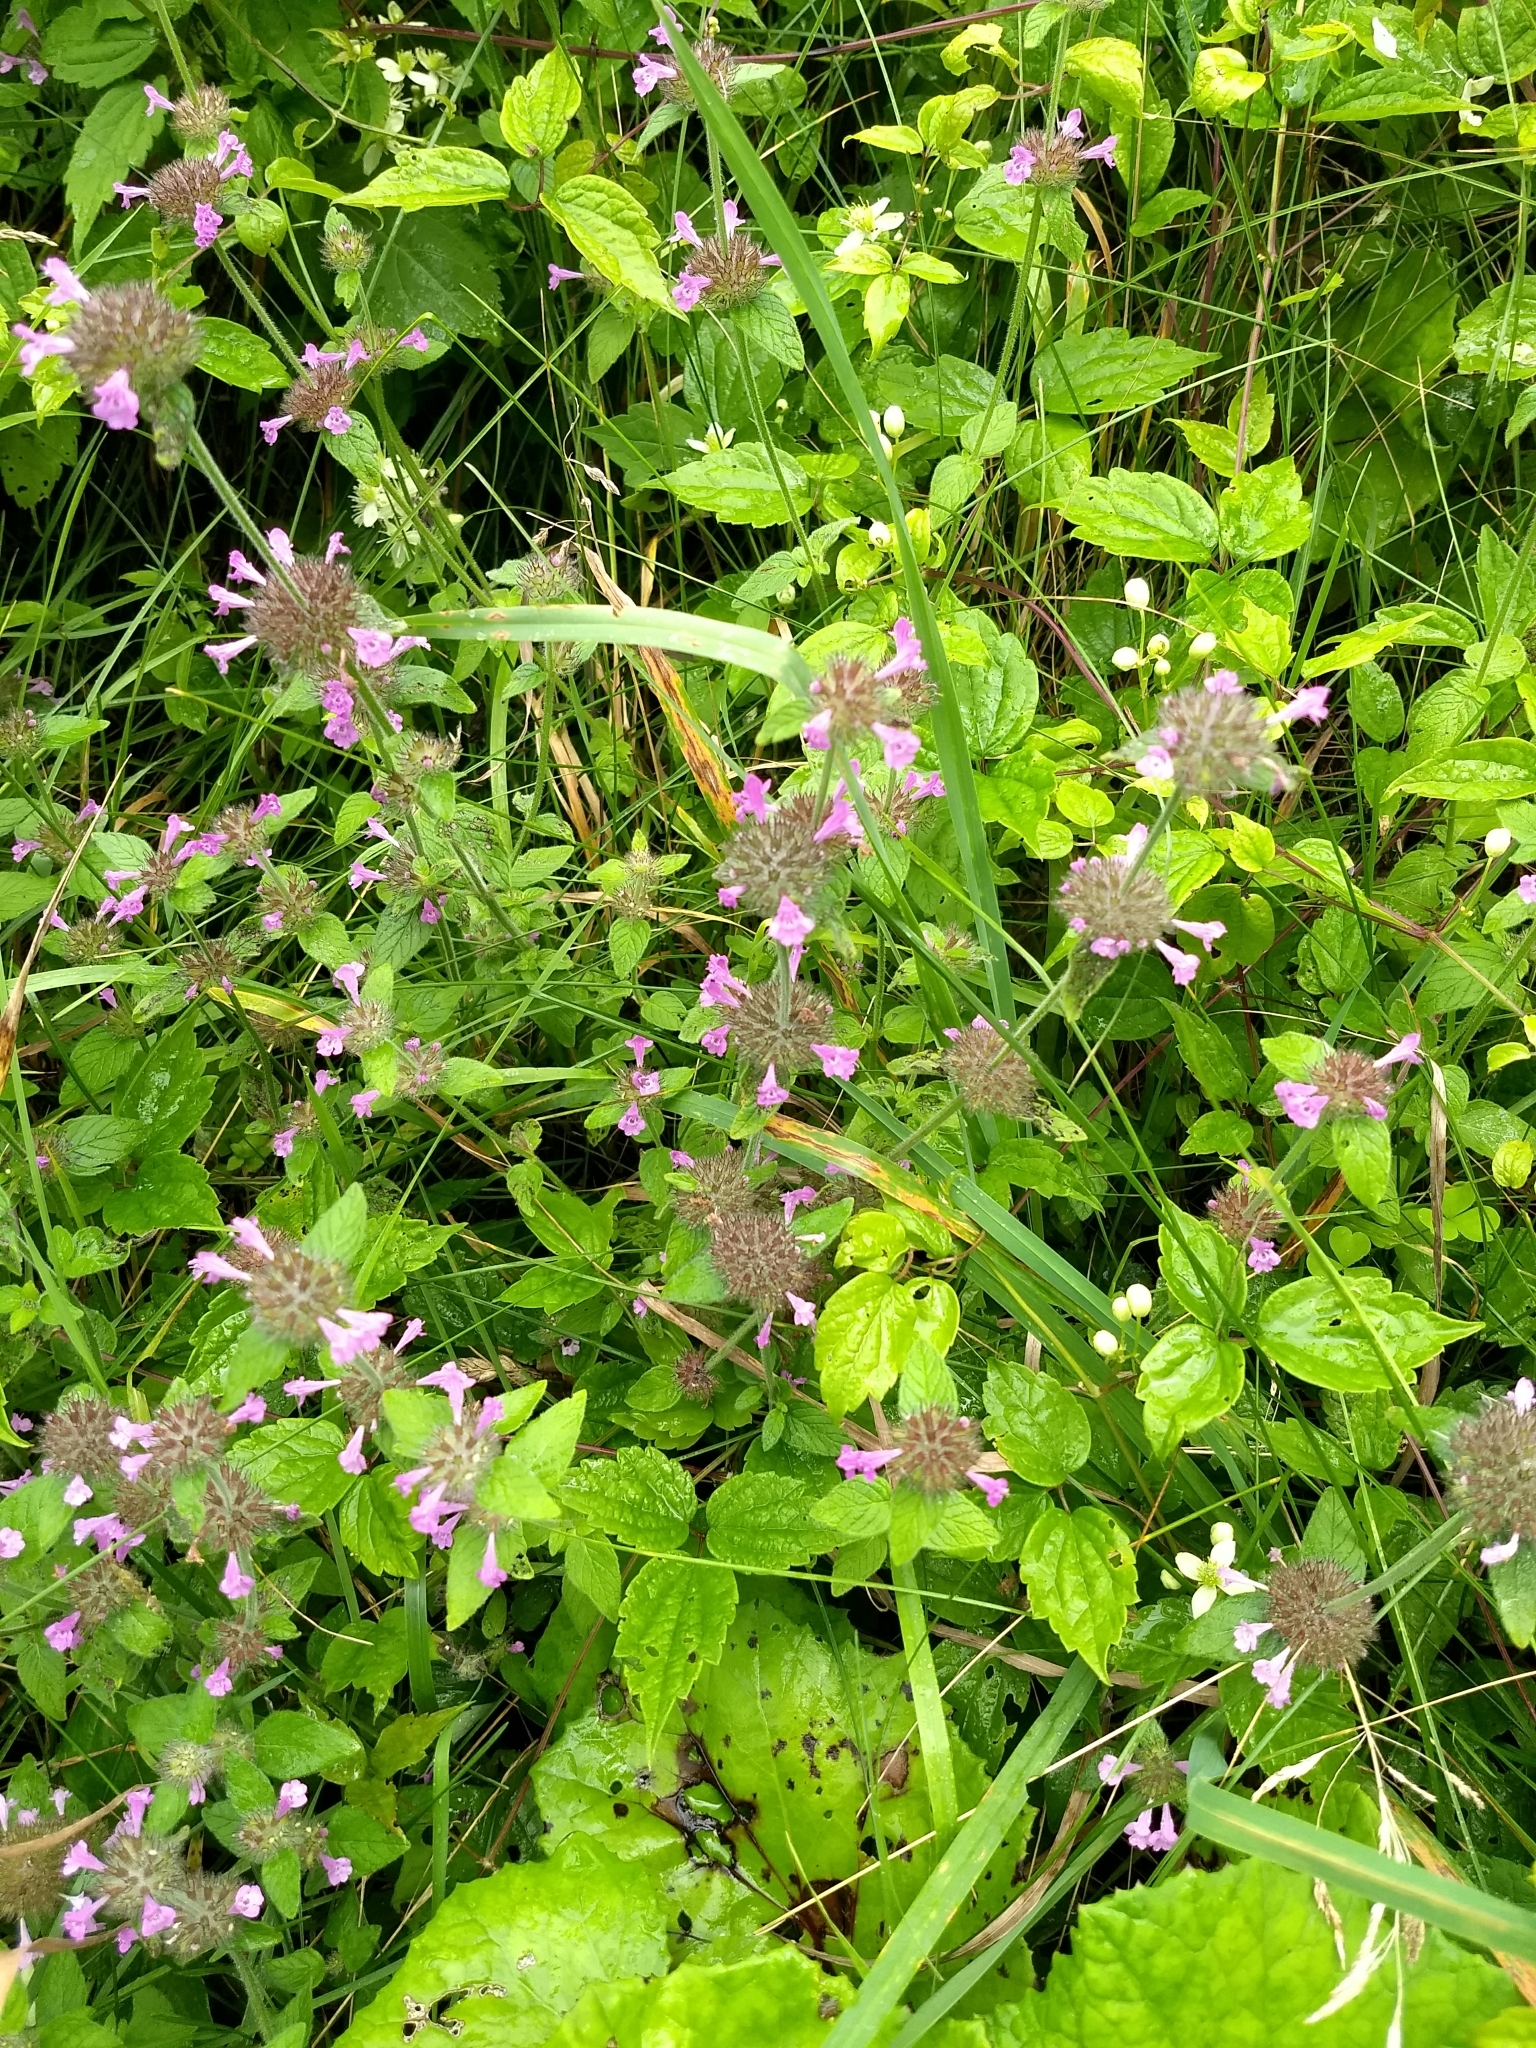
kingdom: Plantae
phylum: Tracheophyta
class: Magnoliopsida
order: Lamiales
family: Lamiaceae
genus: Clinopodium
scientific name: Clinopodium vulgare
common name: Wild basil
